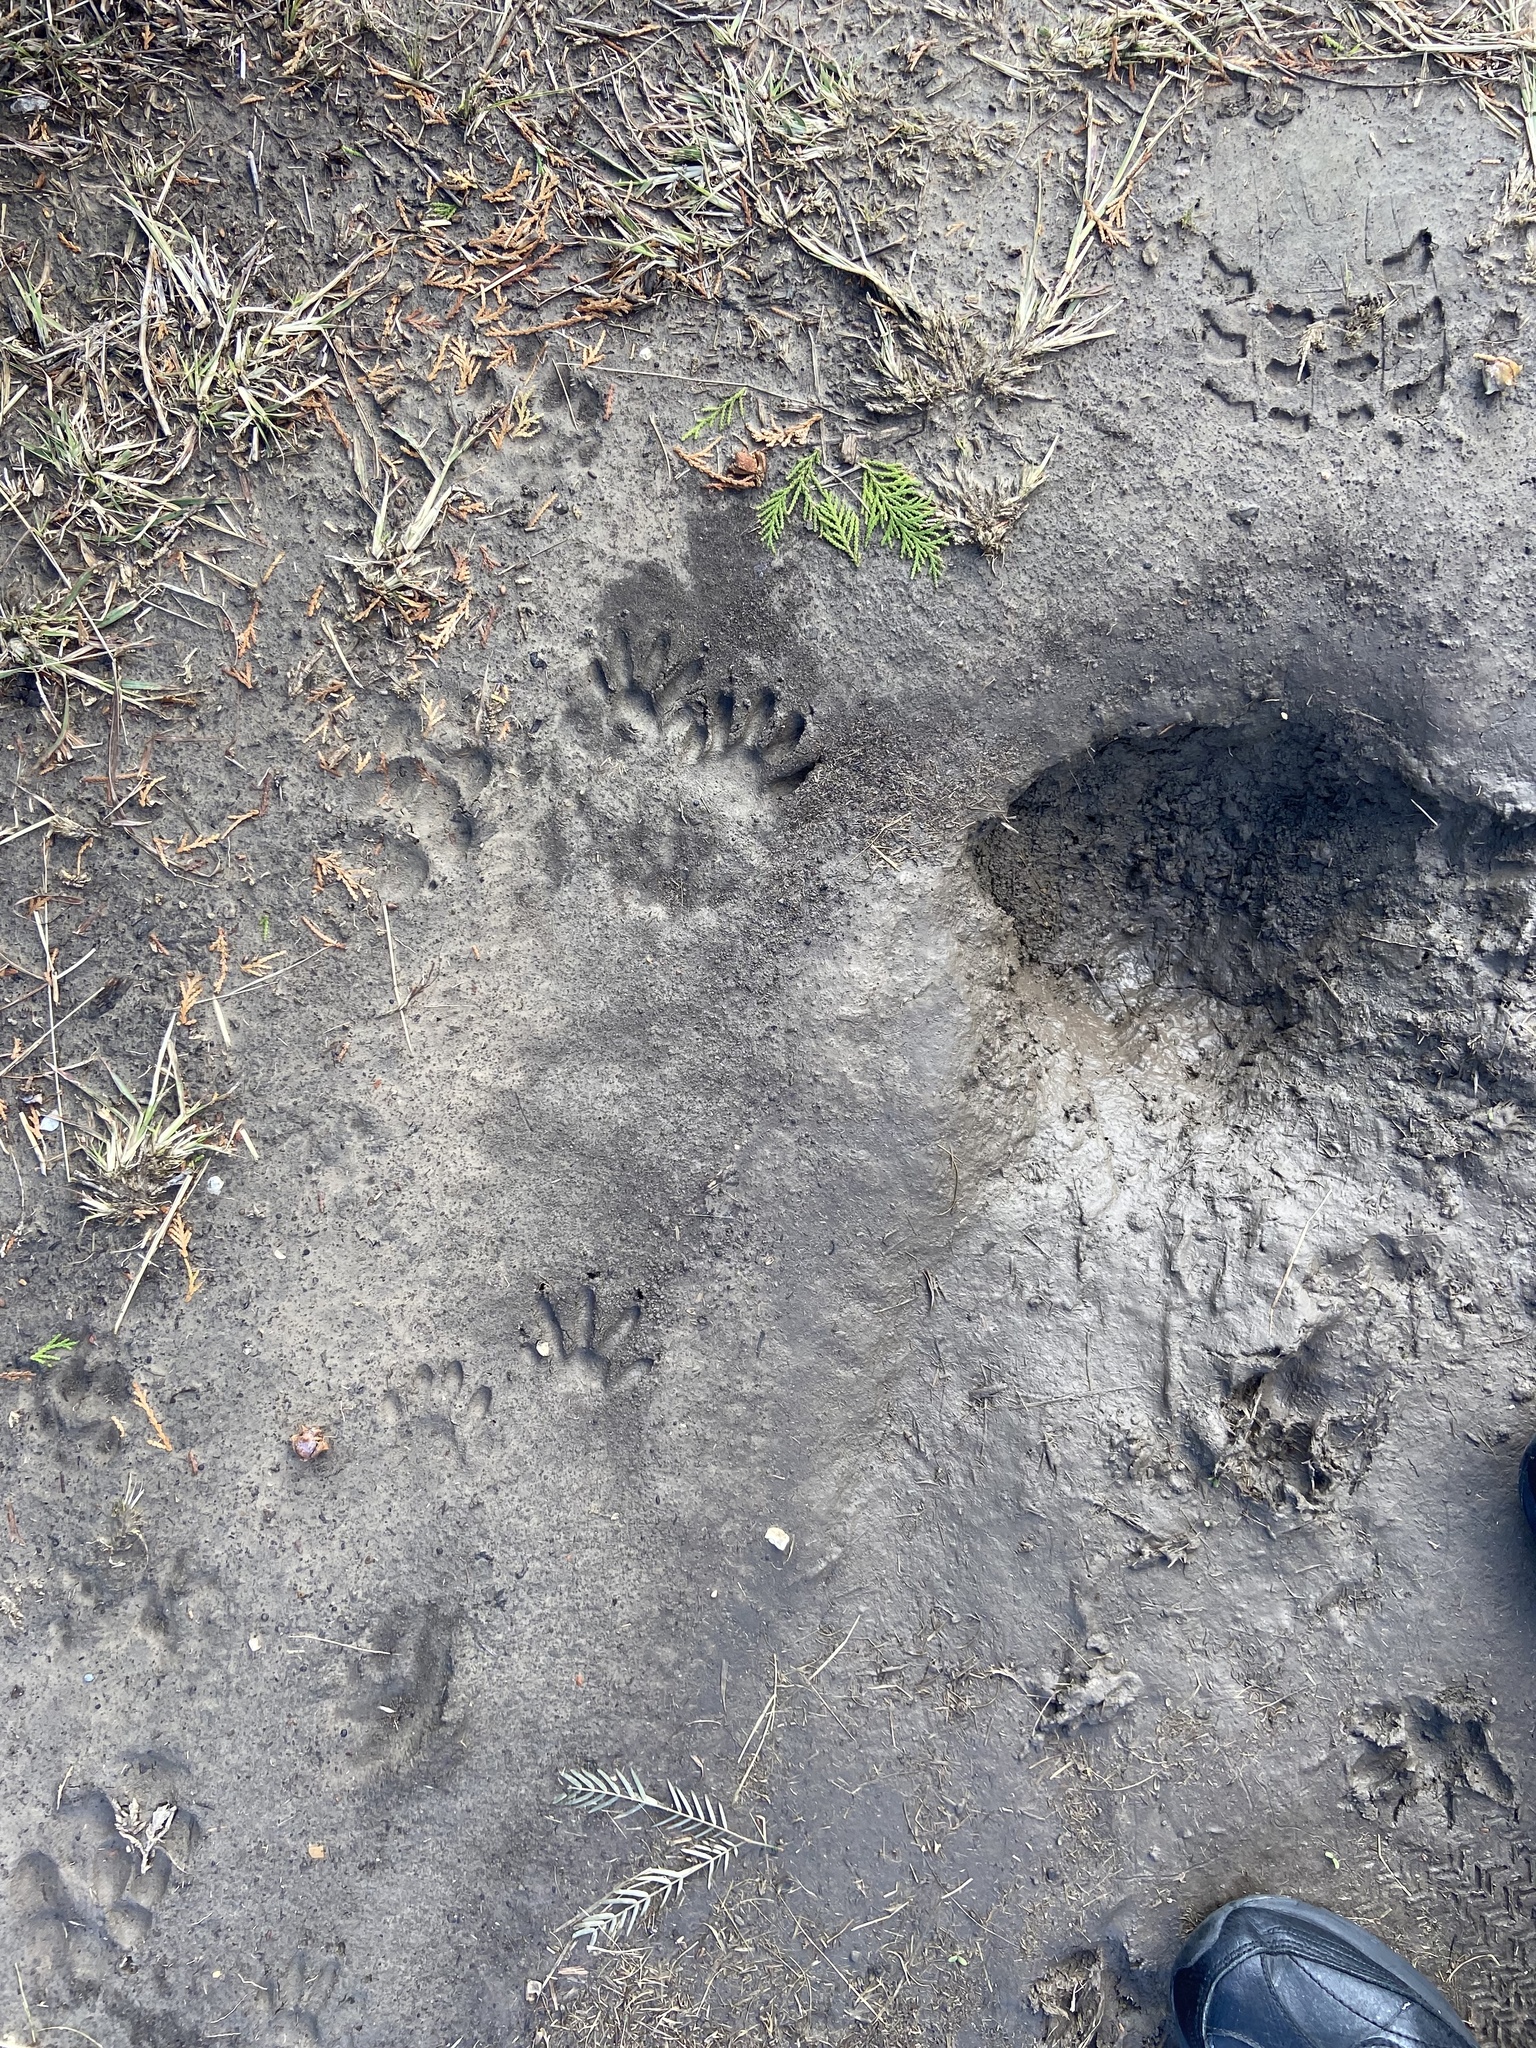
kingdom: Animalia
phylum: Chordata
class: Mammalia
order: Carnivora
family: Procyonidae
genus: Procyon
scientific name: Procyon lotor
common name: Raccoon
